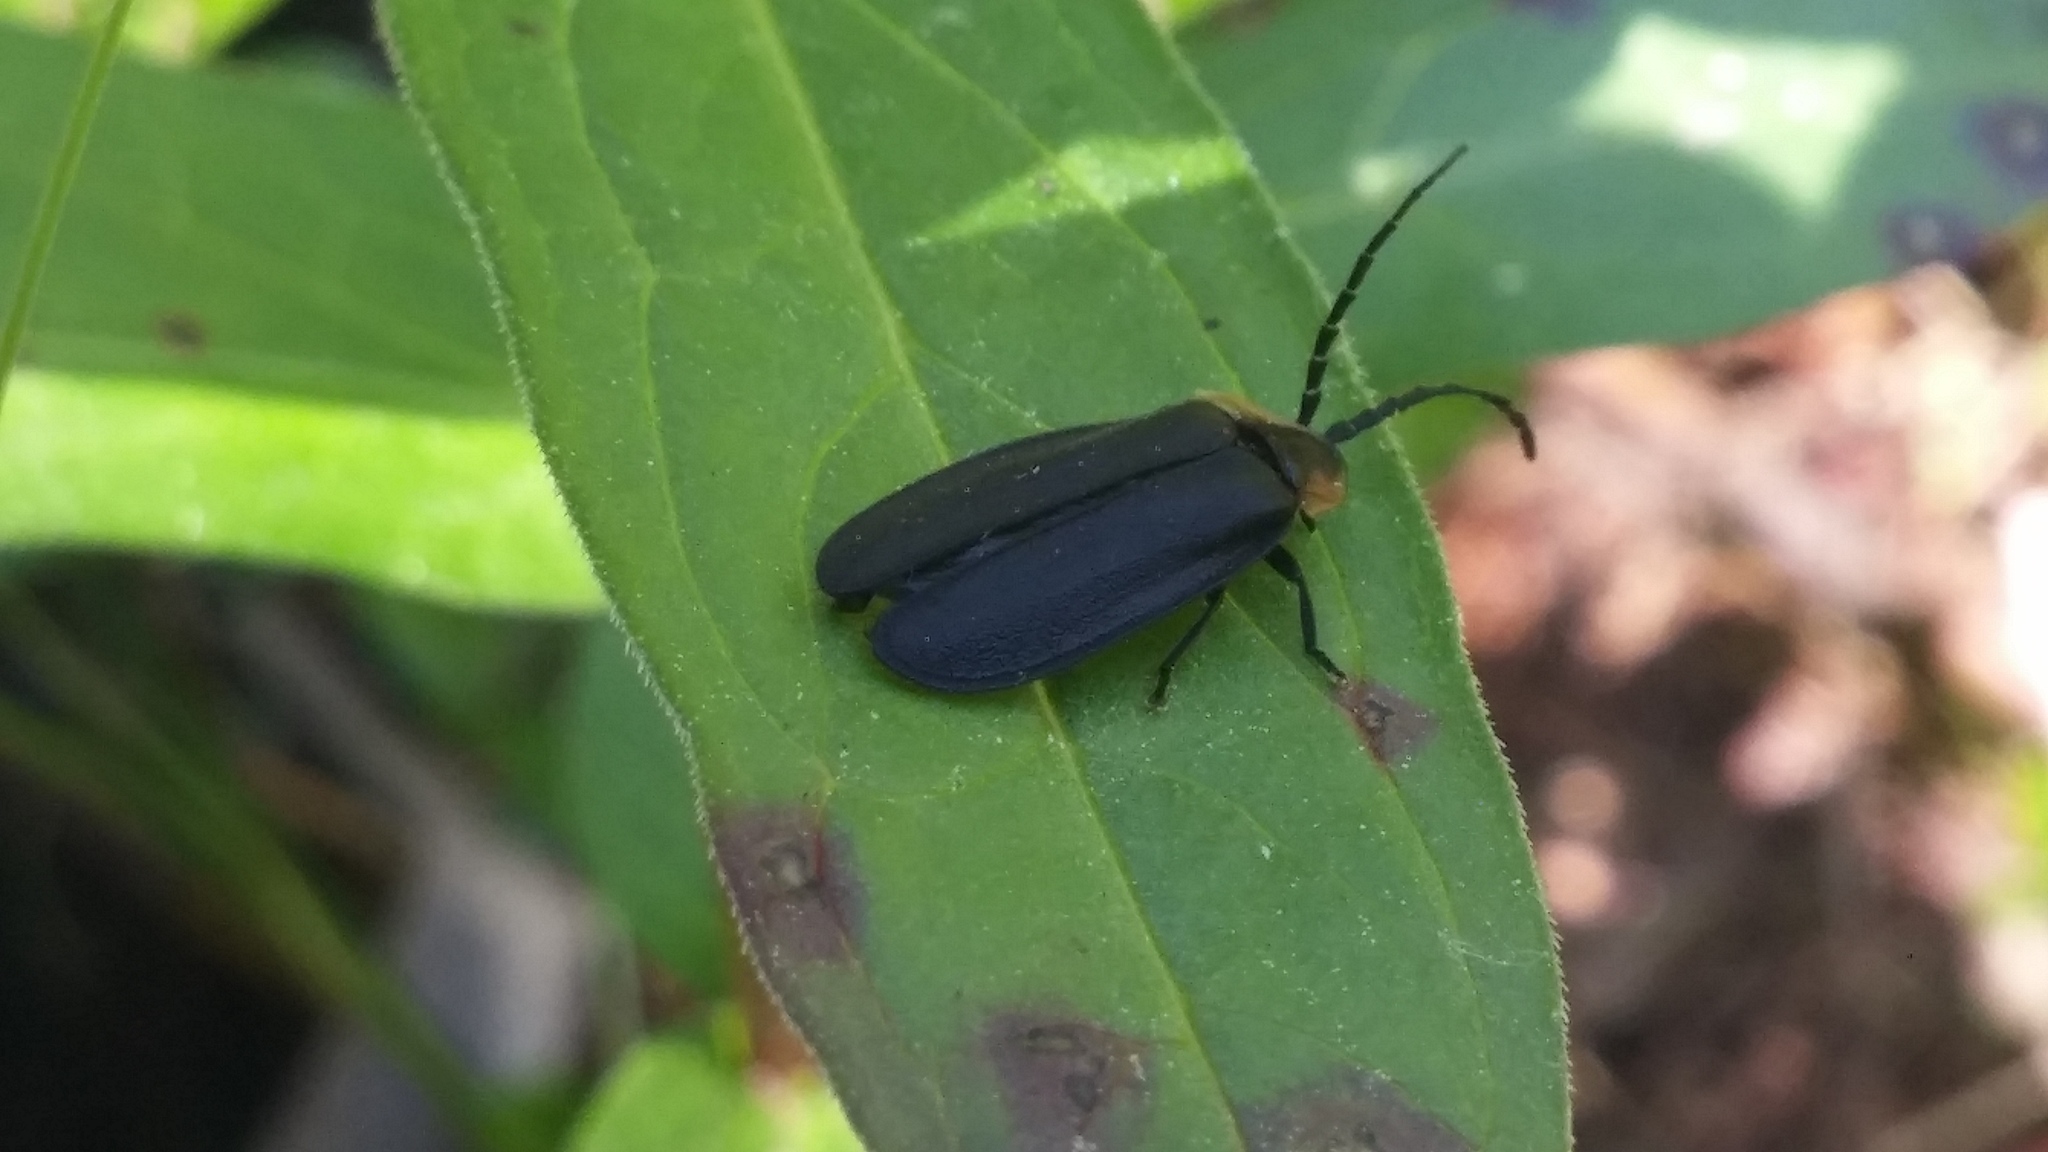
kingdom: Animalia
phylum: Arthropoda
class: Insecta
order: Coleoptera
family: Lampyridae
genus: Lucidota
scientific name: Lucidota atra
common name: Black firefly
